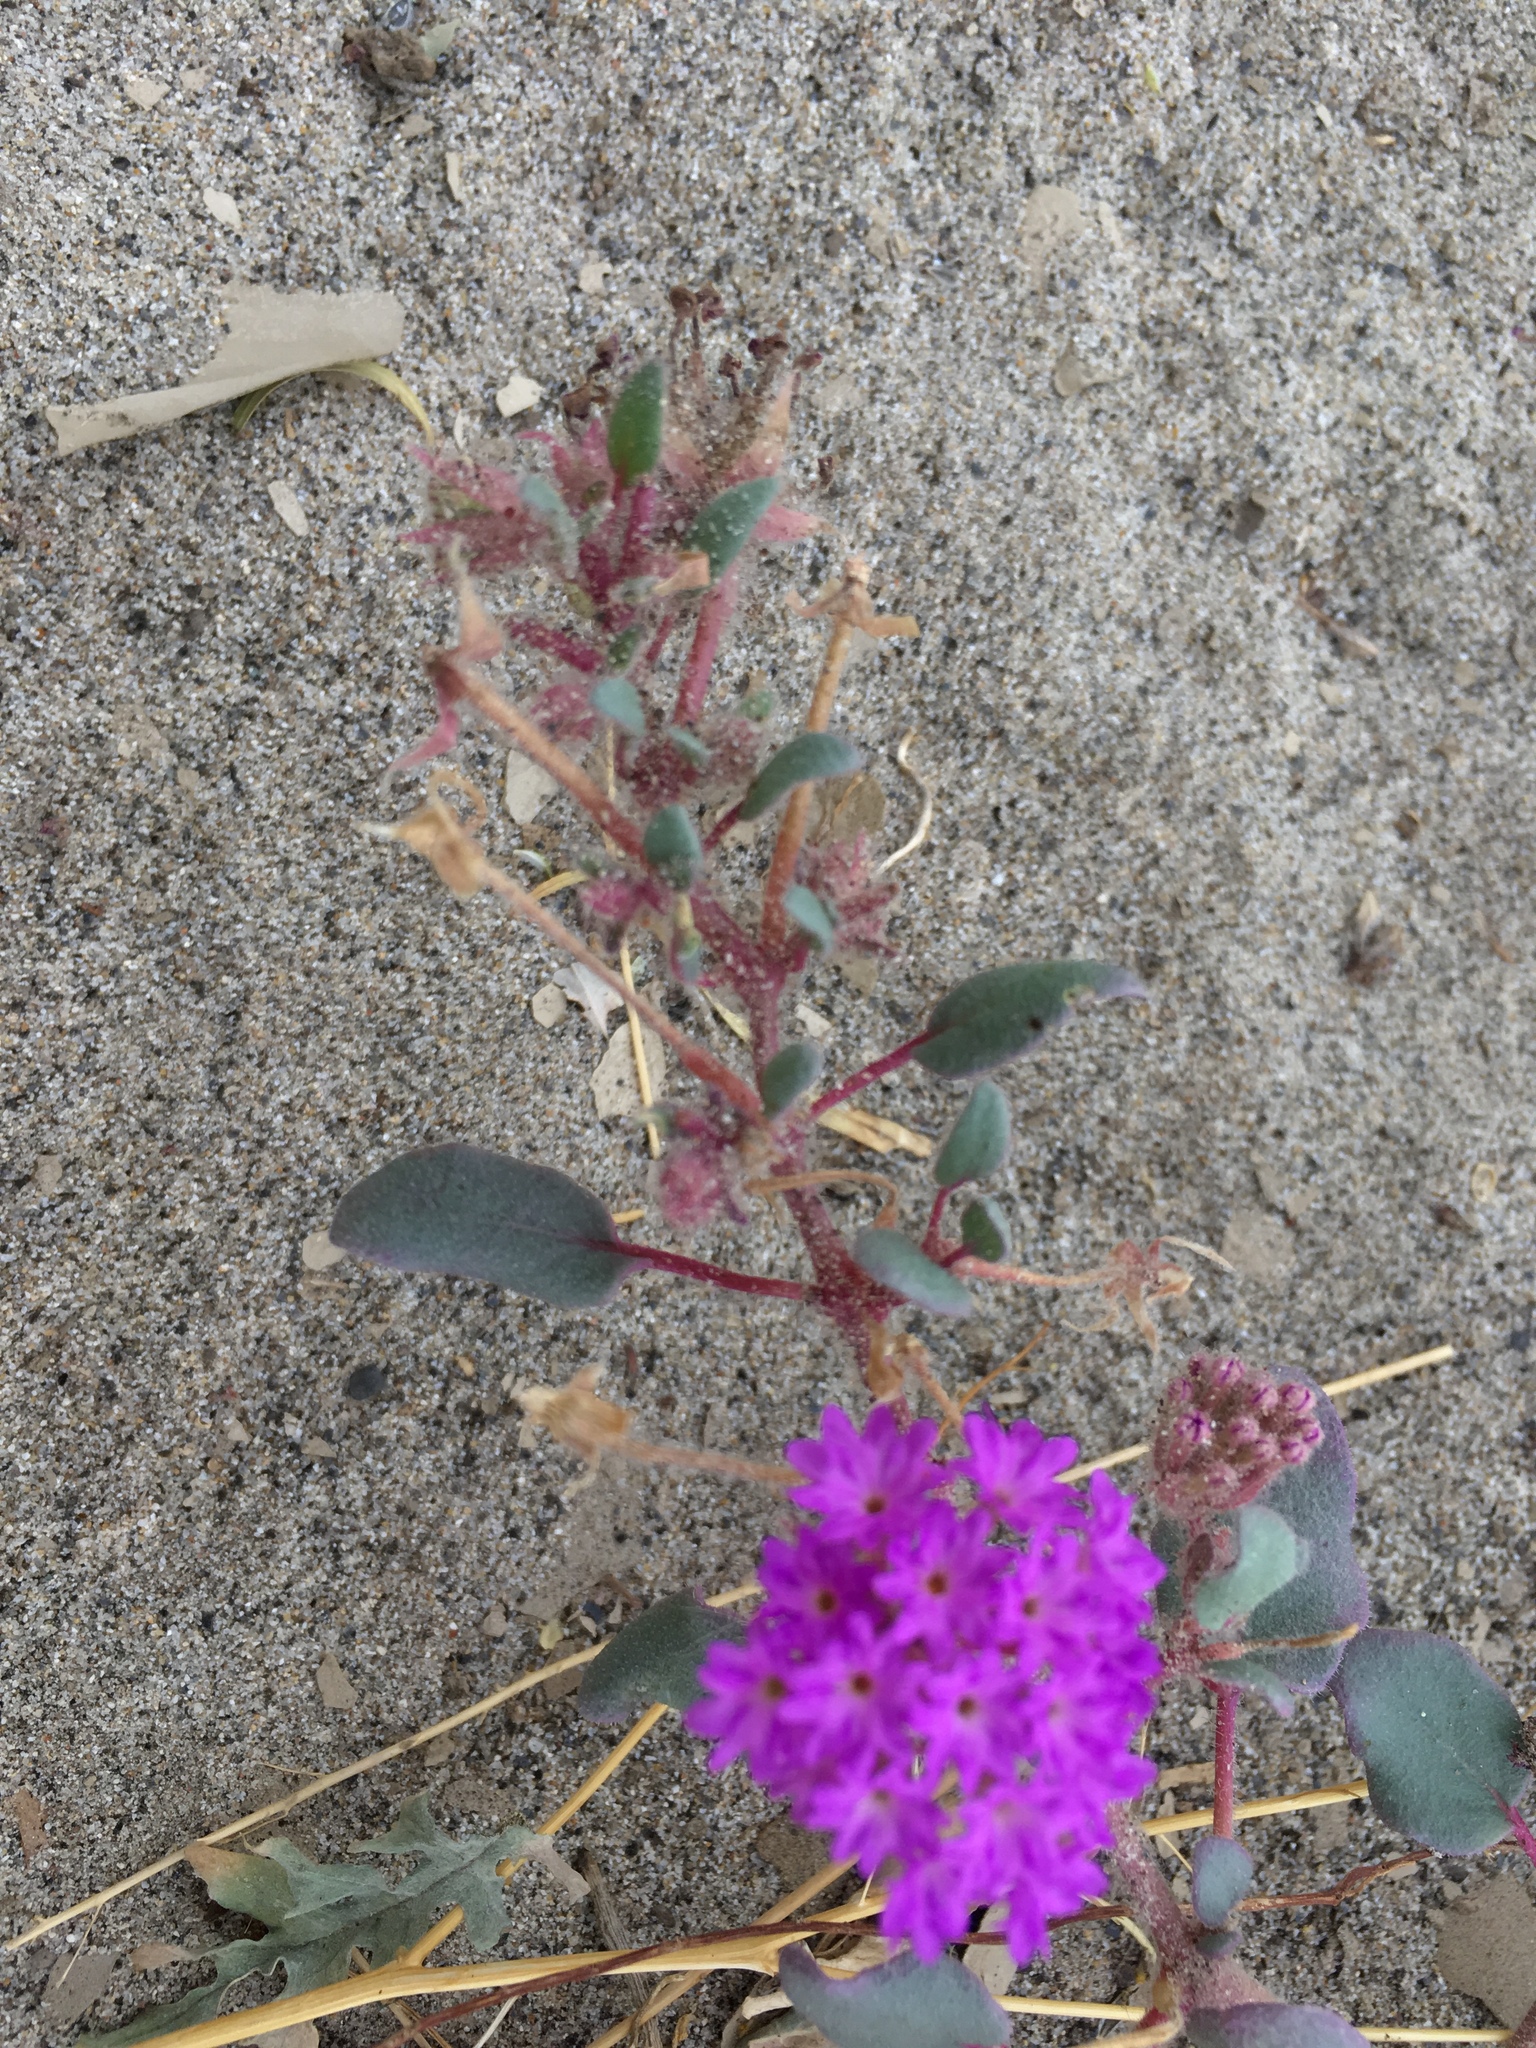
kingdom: Plantae
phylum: Tracheophyta
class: Magnoliopsida
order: Caryophyllales
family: Nyctaginaceae
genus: Abronia
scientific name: Abronia villosa
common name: Desert sand-verbena
